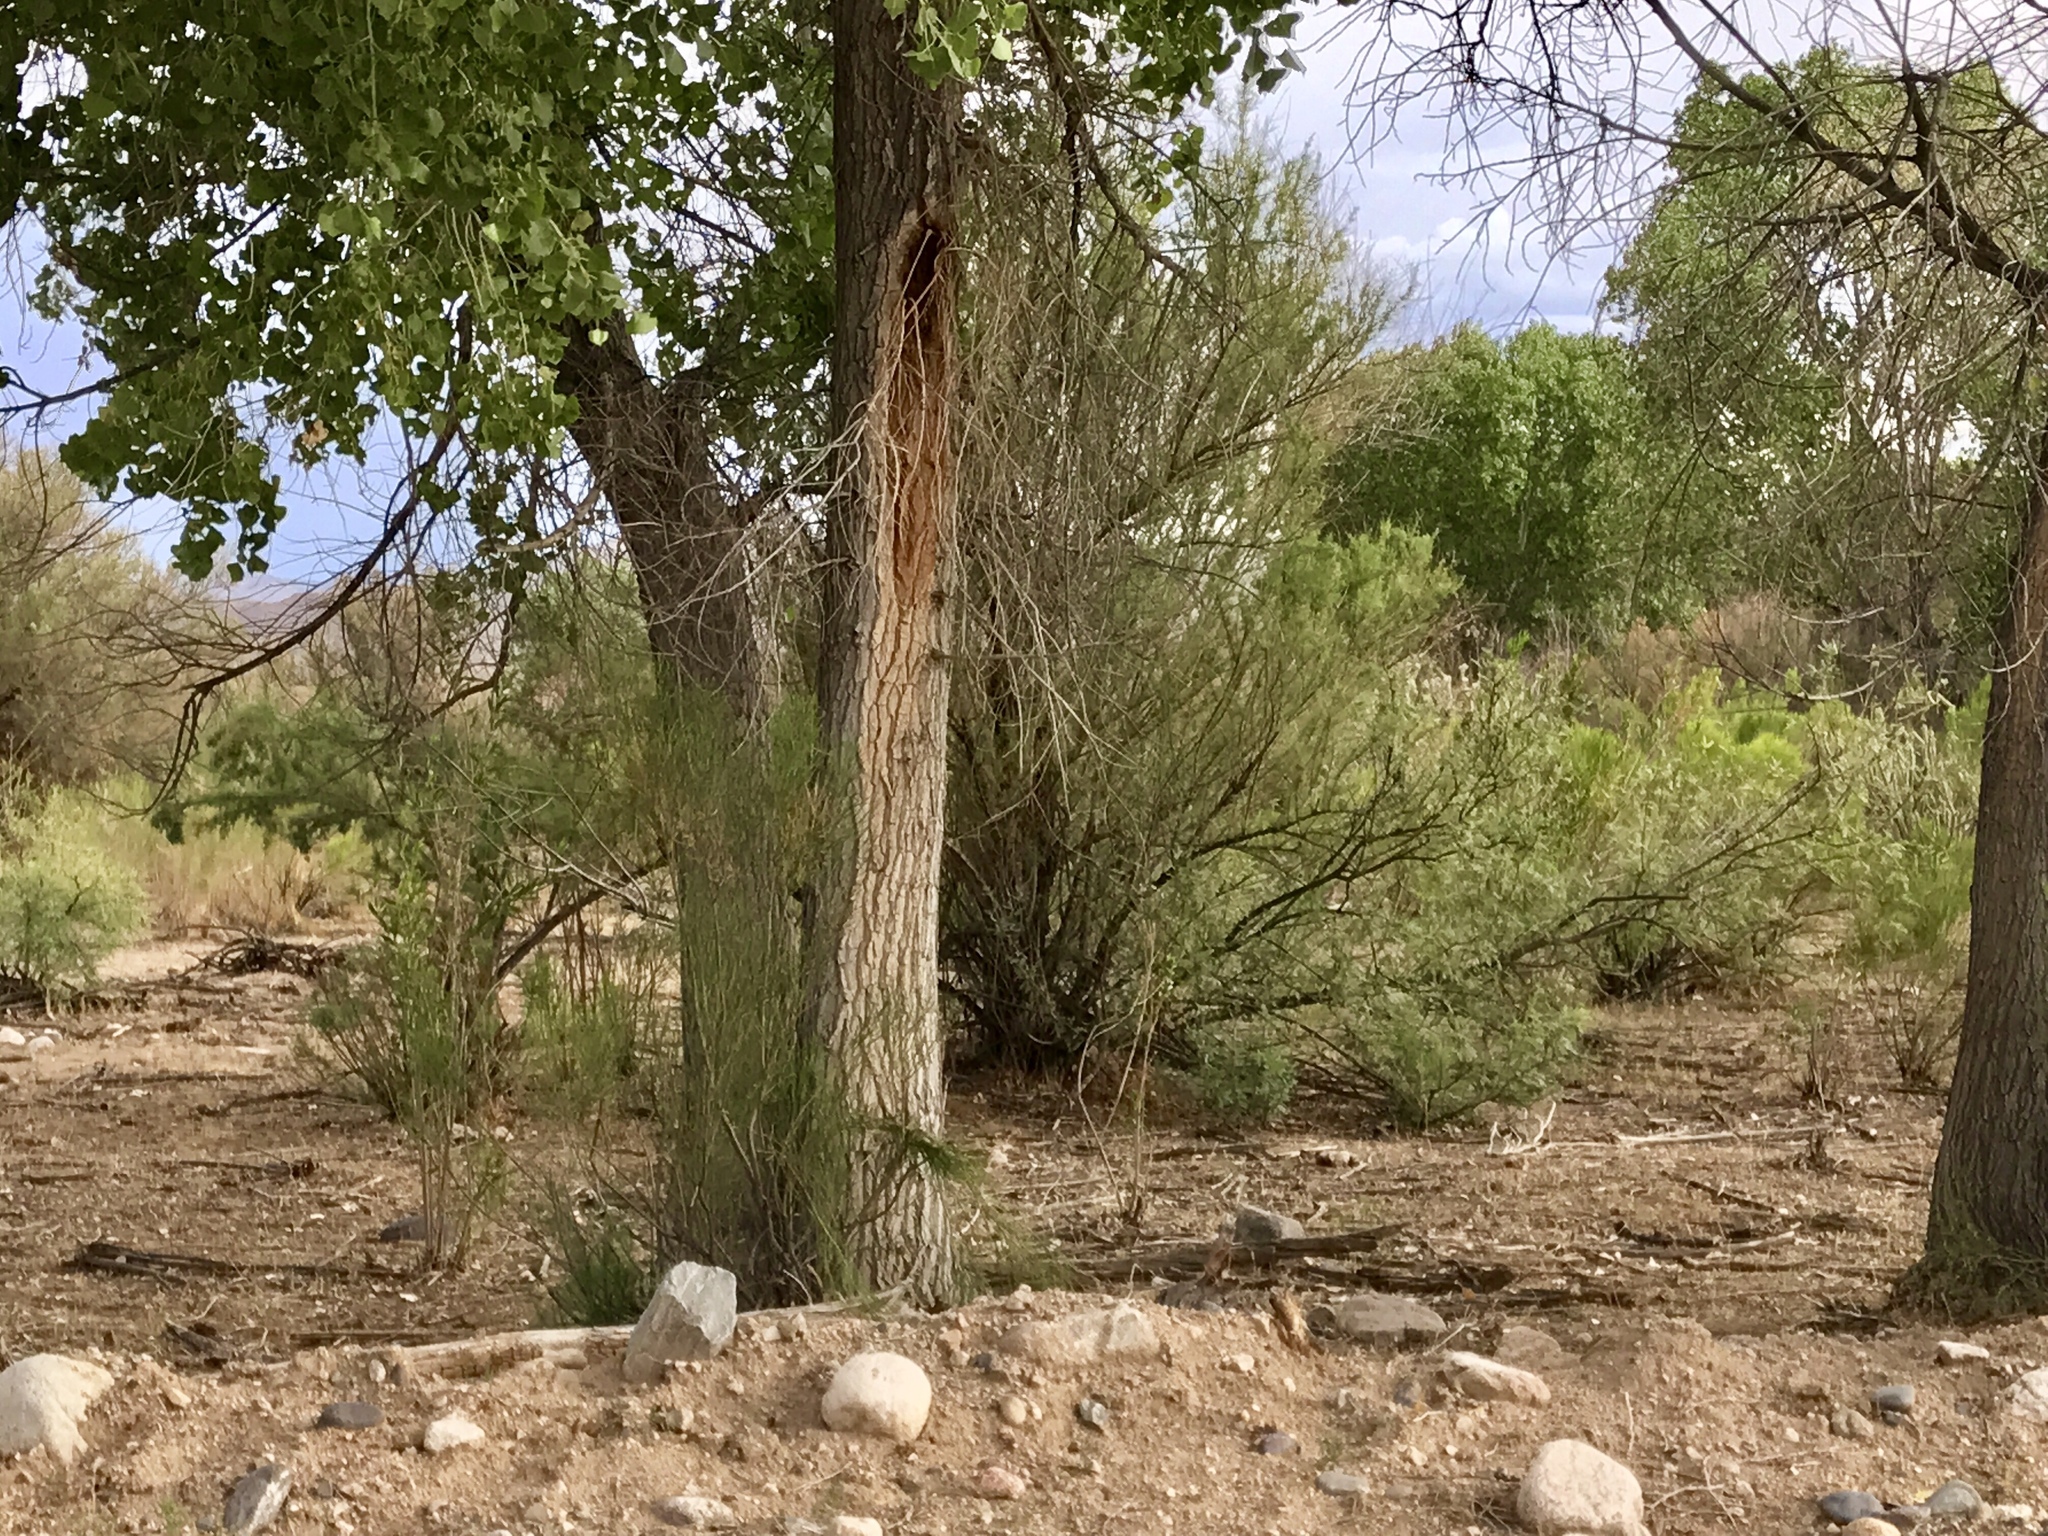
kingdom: Plantae
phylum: Tracheophyta
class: Magnoliopsida
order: Malpighiales
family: Salicaceae
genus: Populus
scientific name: Populus fremontii
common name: Fremont's cottonwood
